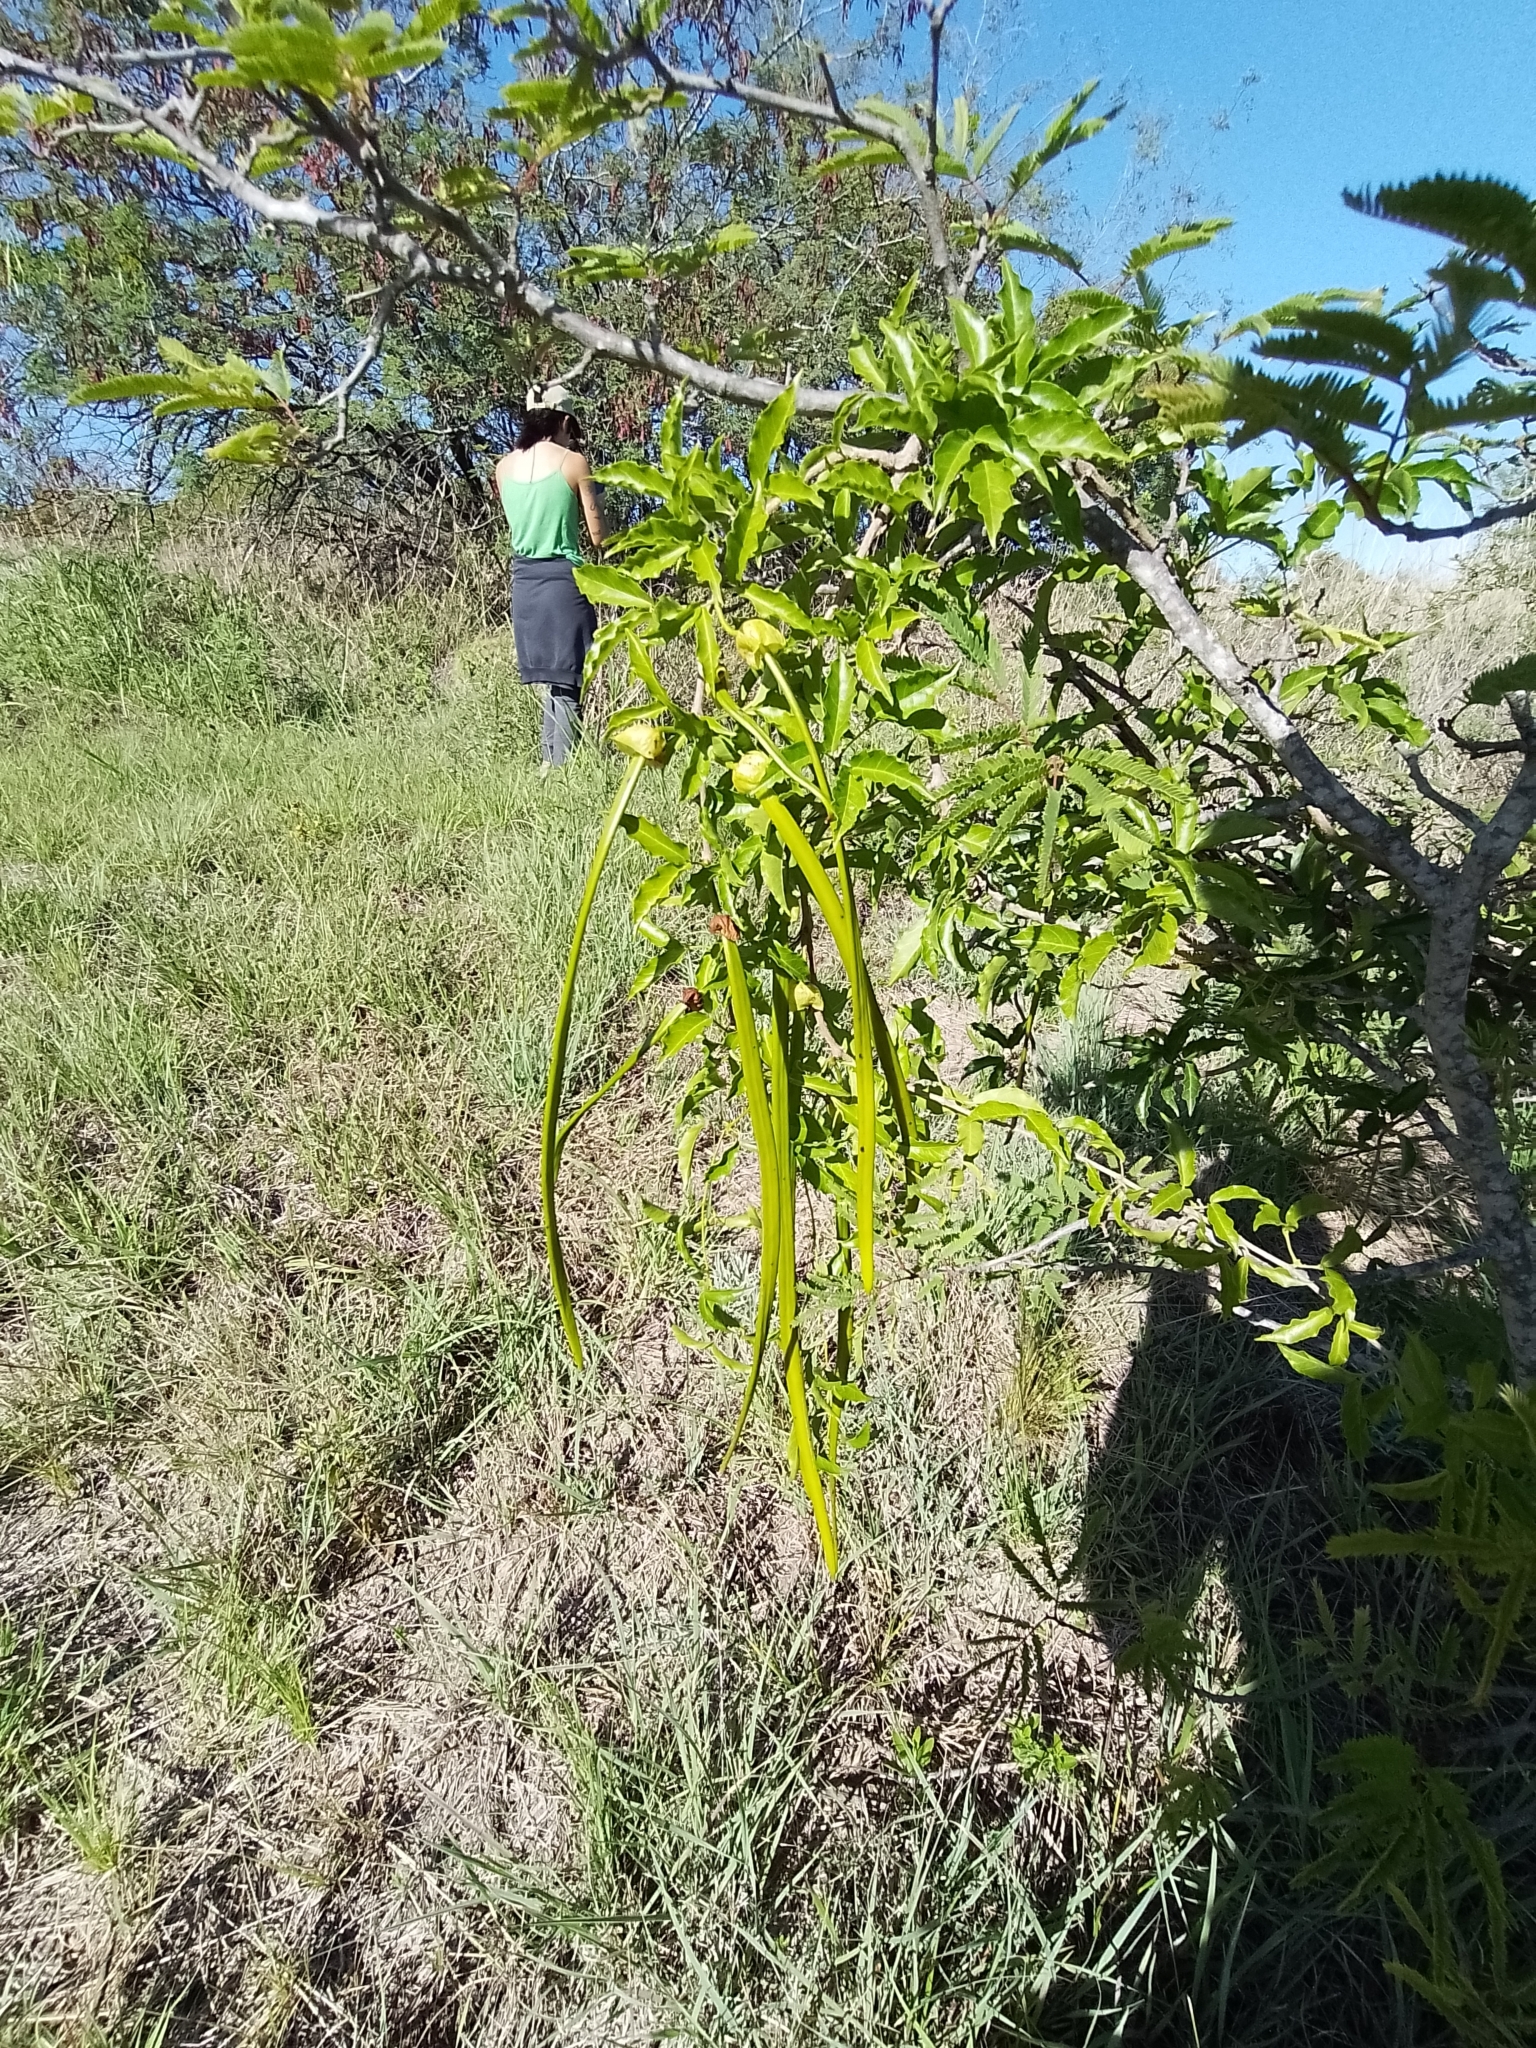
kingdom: Plantae
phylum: Tracheophyta
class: Magnoliopsida
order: Lamiales
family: Bignoniaceae
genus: Dolichandra
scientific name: Dolichandra unguis-cati
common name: Catclaw vine
